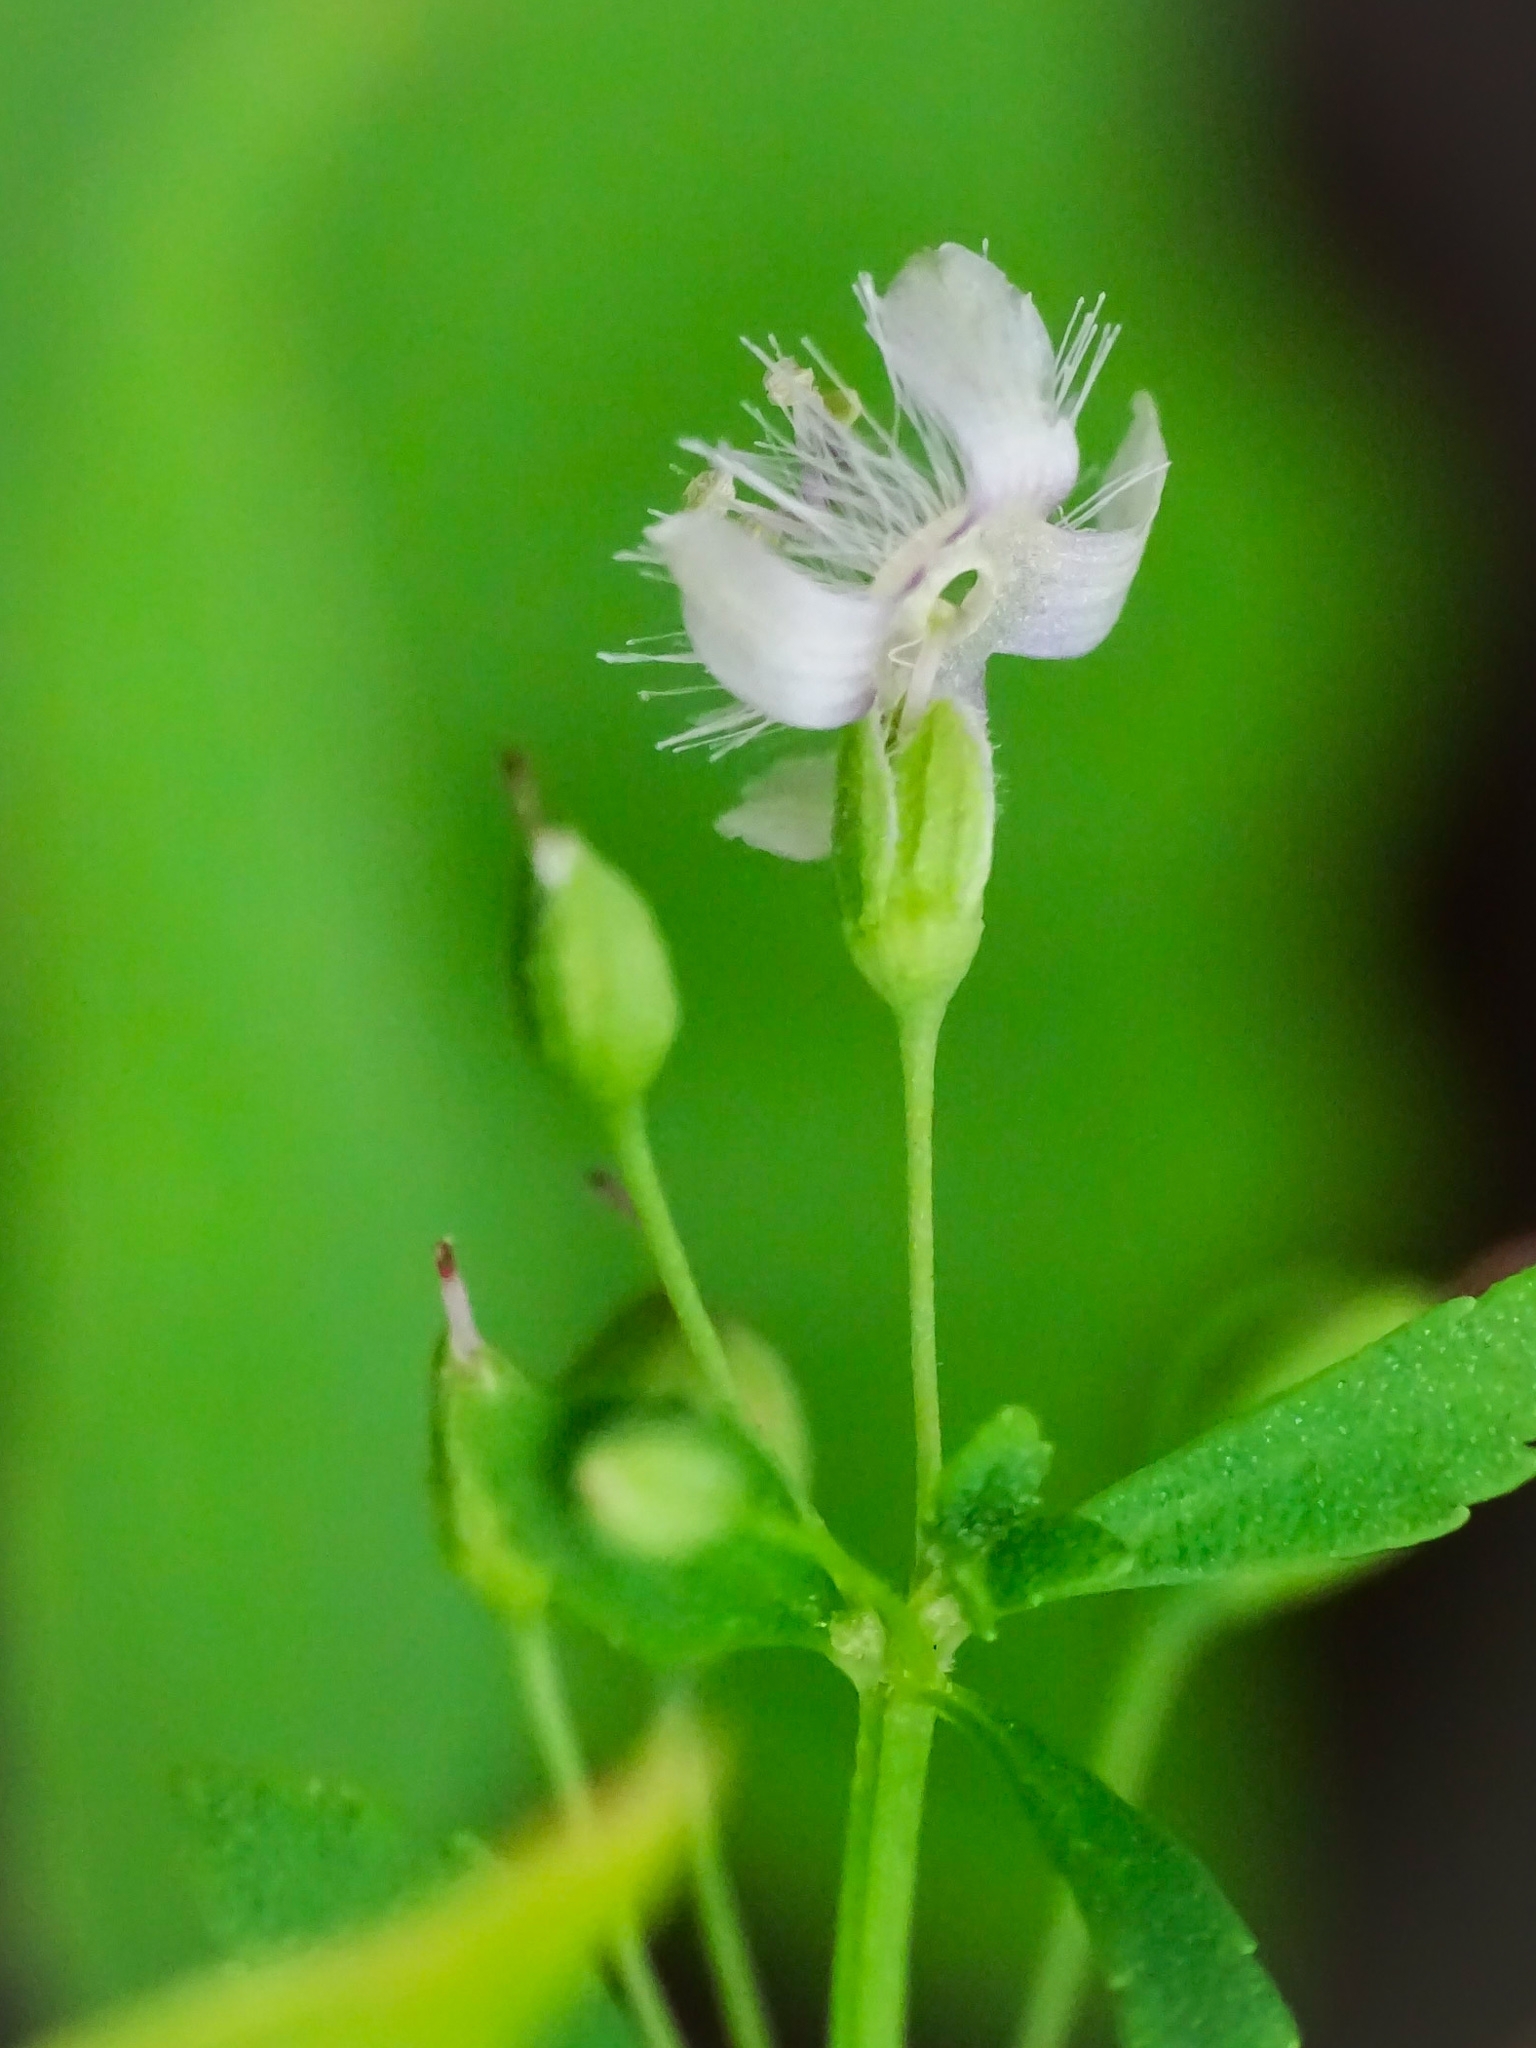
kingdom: Plantae
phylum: Tracheophyta
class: Magnoliopsida
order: Lamiales
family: Plantaginaceae
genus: Scoparia
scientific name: Scoparia dulcis
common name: Scoparia-weed
